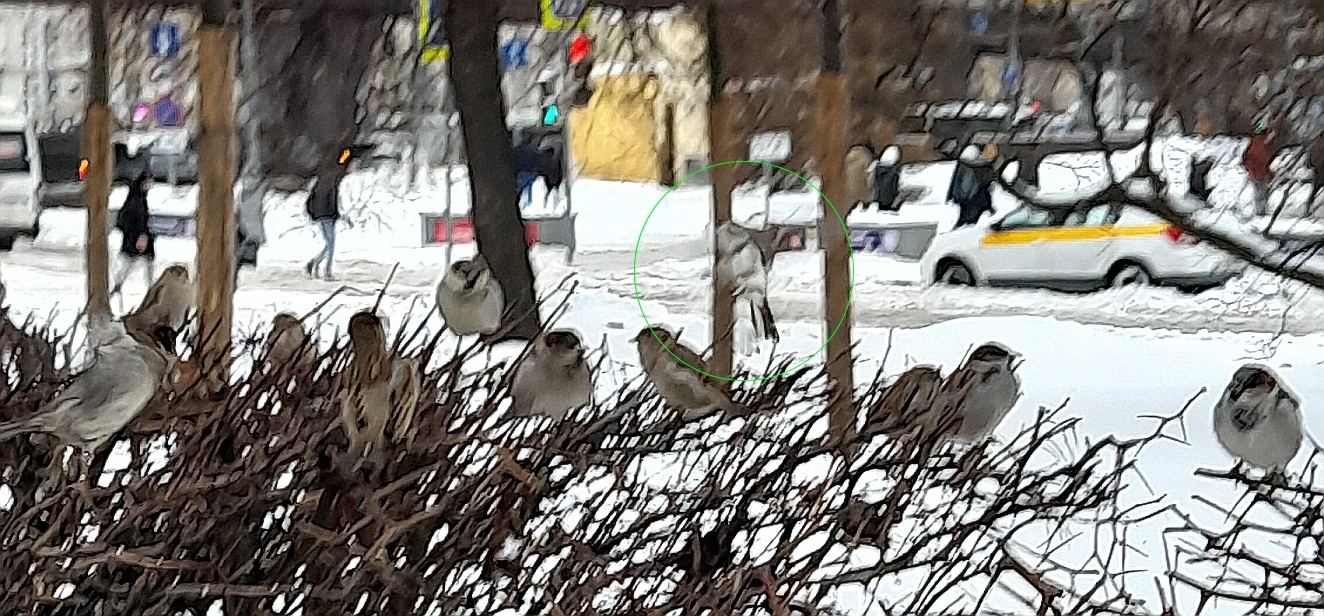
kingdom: Animalia
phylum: Chordata
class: Aves
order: Passeriformes
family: Passeridae
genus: Passer
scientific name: Passer domesticus
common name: House sparrow
